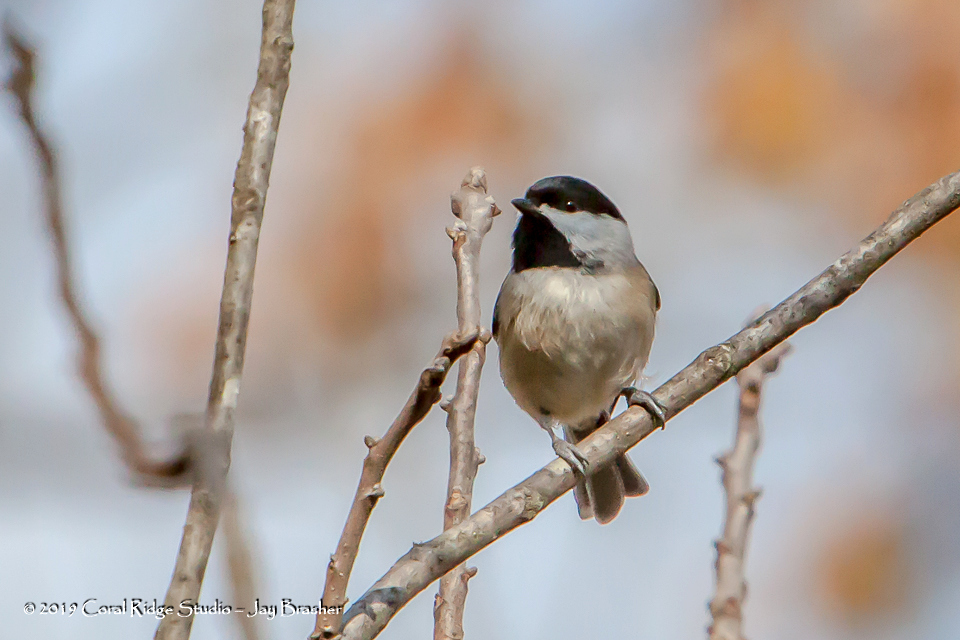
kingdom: Animalia
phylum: Chordata
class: Aves
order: Passeriformes
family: Paridae
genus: Poecile
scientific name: Poecile carolinensis
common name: Carolina chickadee
